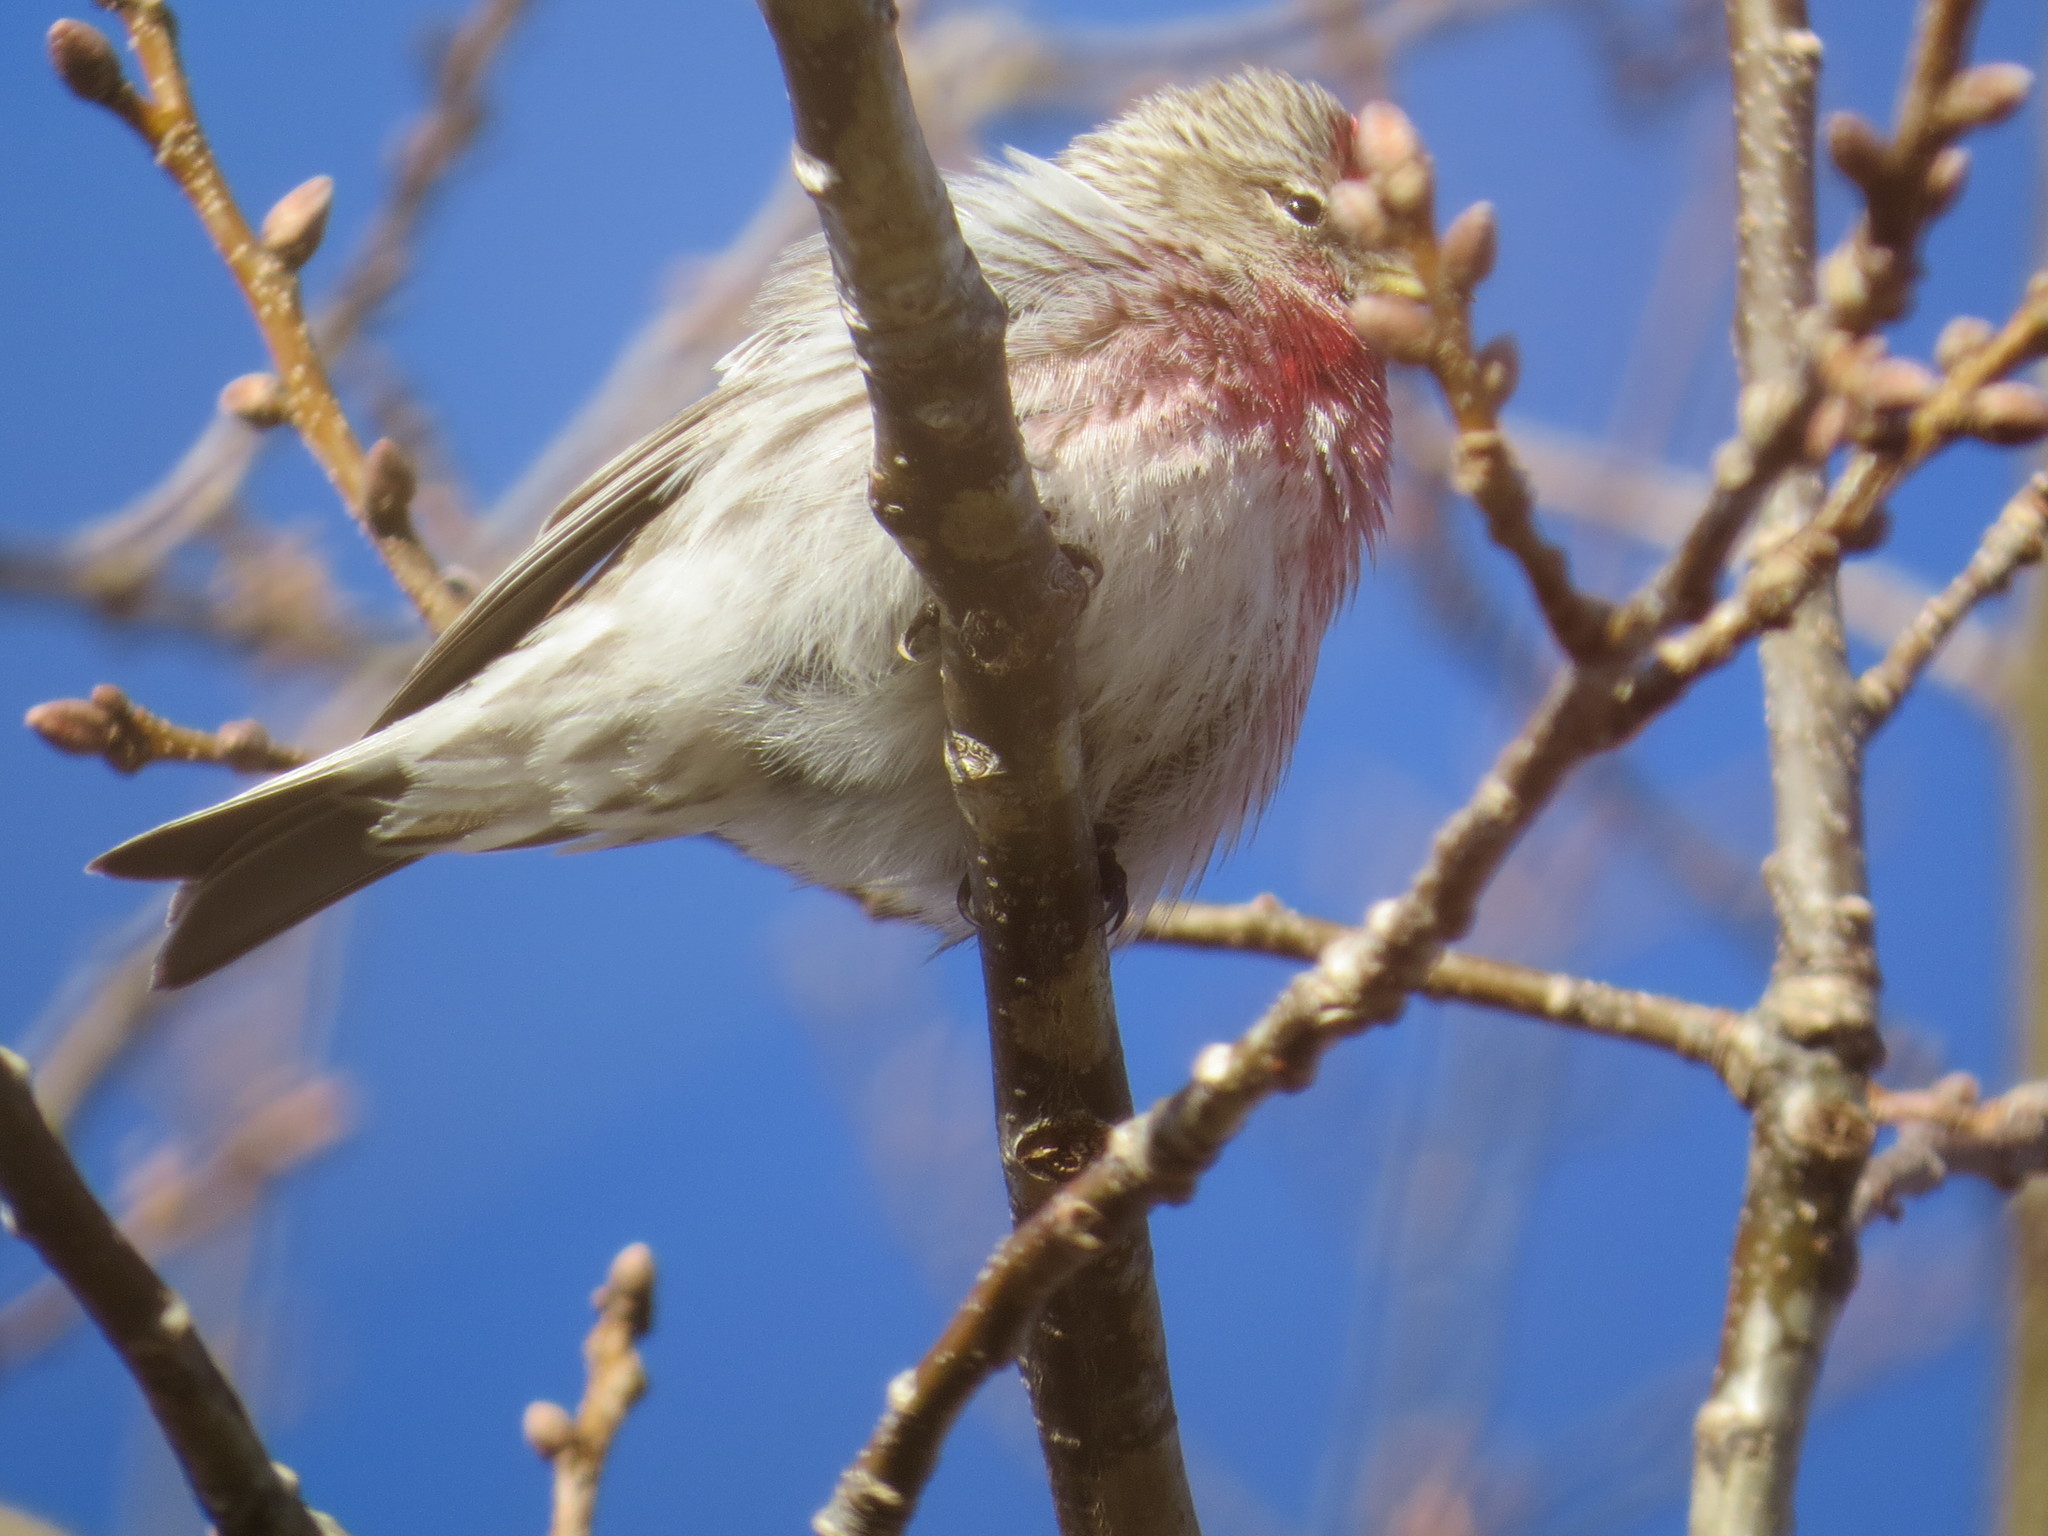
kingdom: Animalia
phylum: Chordata
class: Aves
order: Passeriformes
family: Fringillidae
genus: Acanthis
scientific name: Acanthis flammea
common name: Common redpoll
